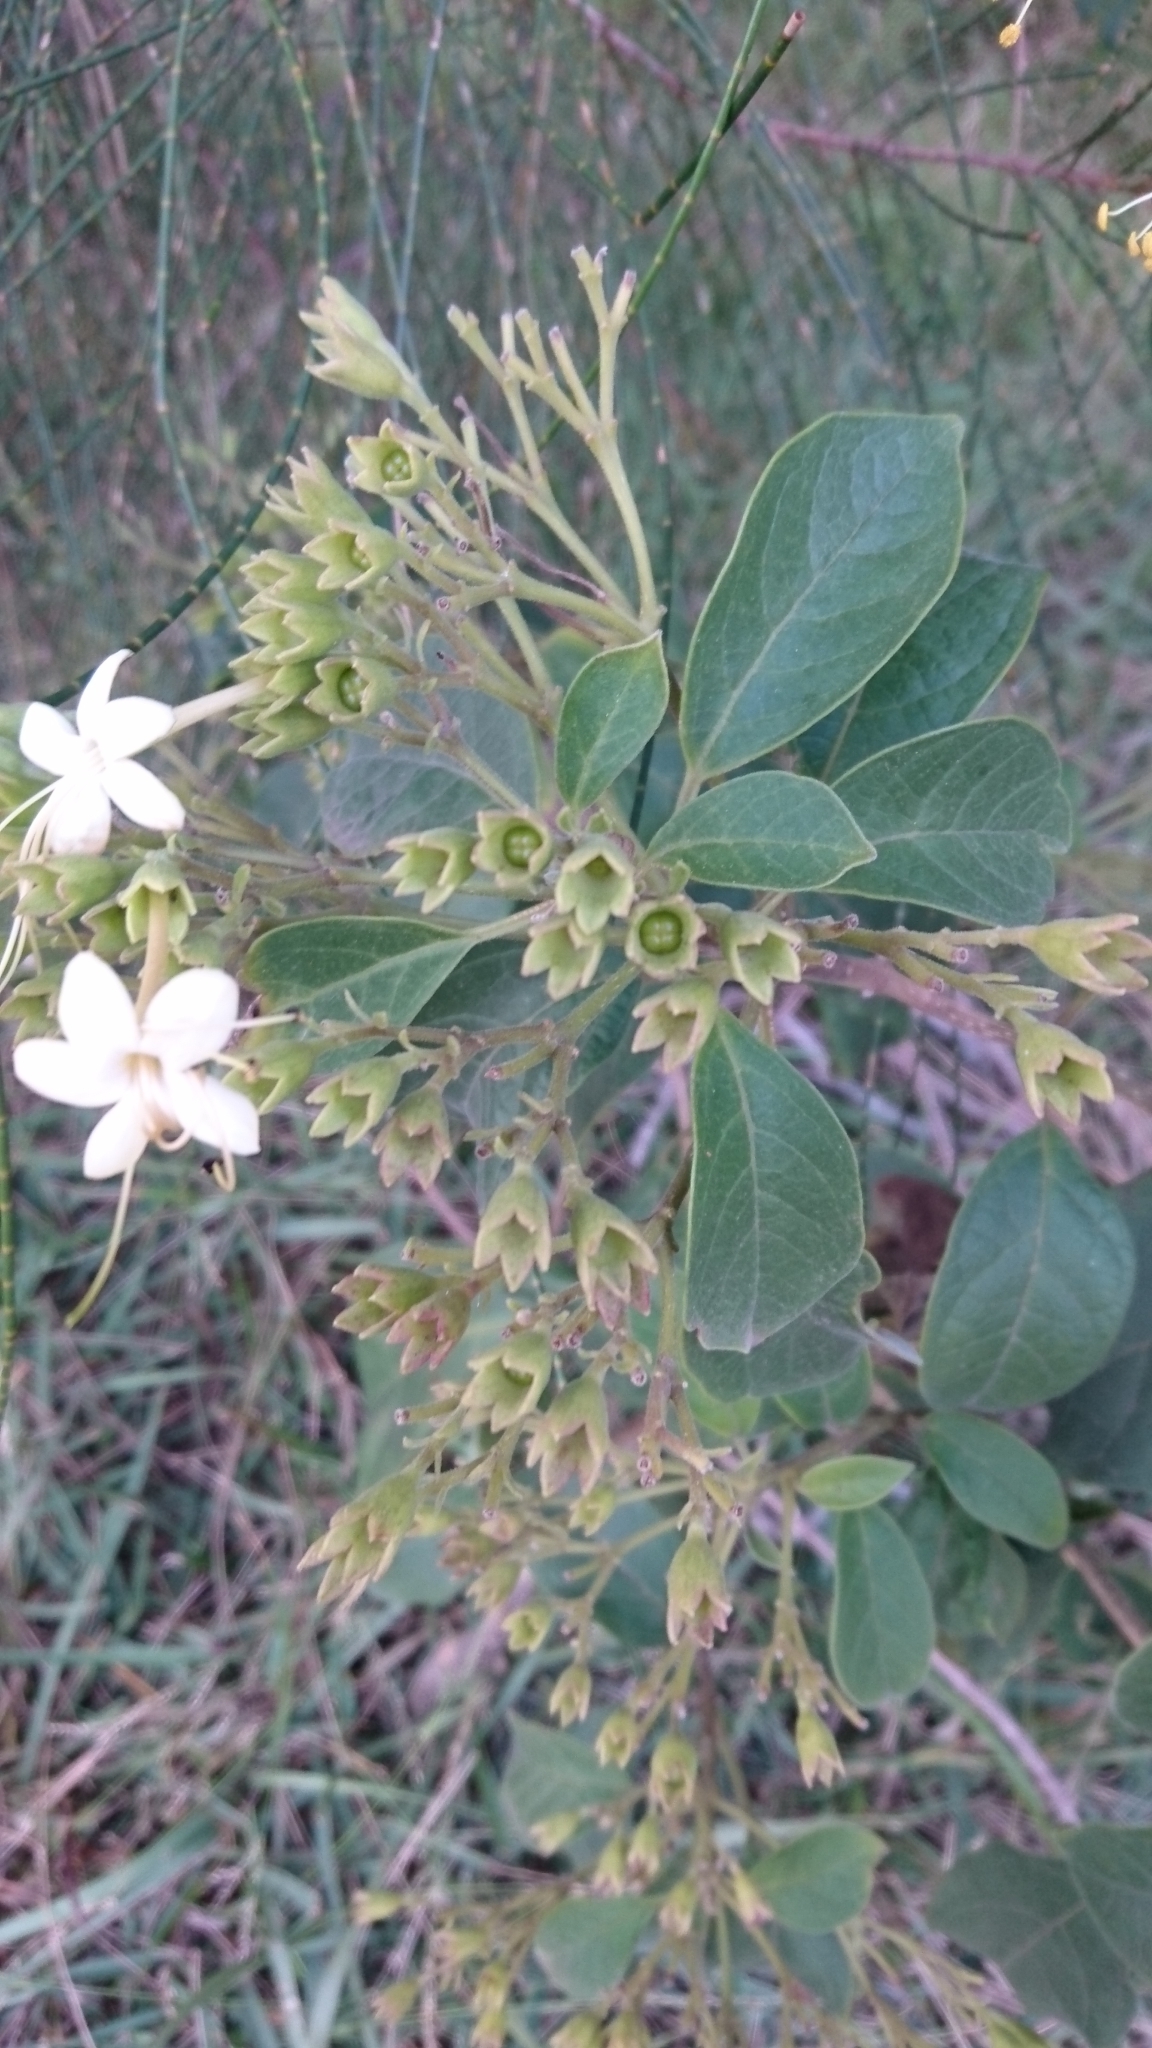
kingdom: Plantae
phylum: Tracheophyta
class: Magnoliopsida
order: Lamiales
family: Lamiaceae
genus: Clerodendrum
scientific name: Clerodendrum tomentosum
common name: Hairy clerodendrum
